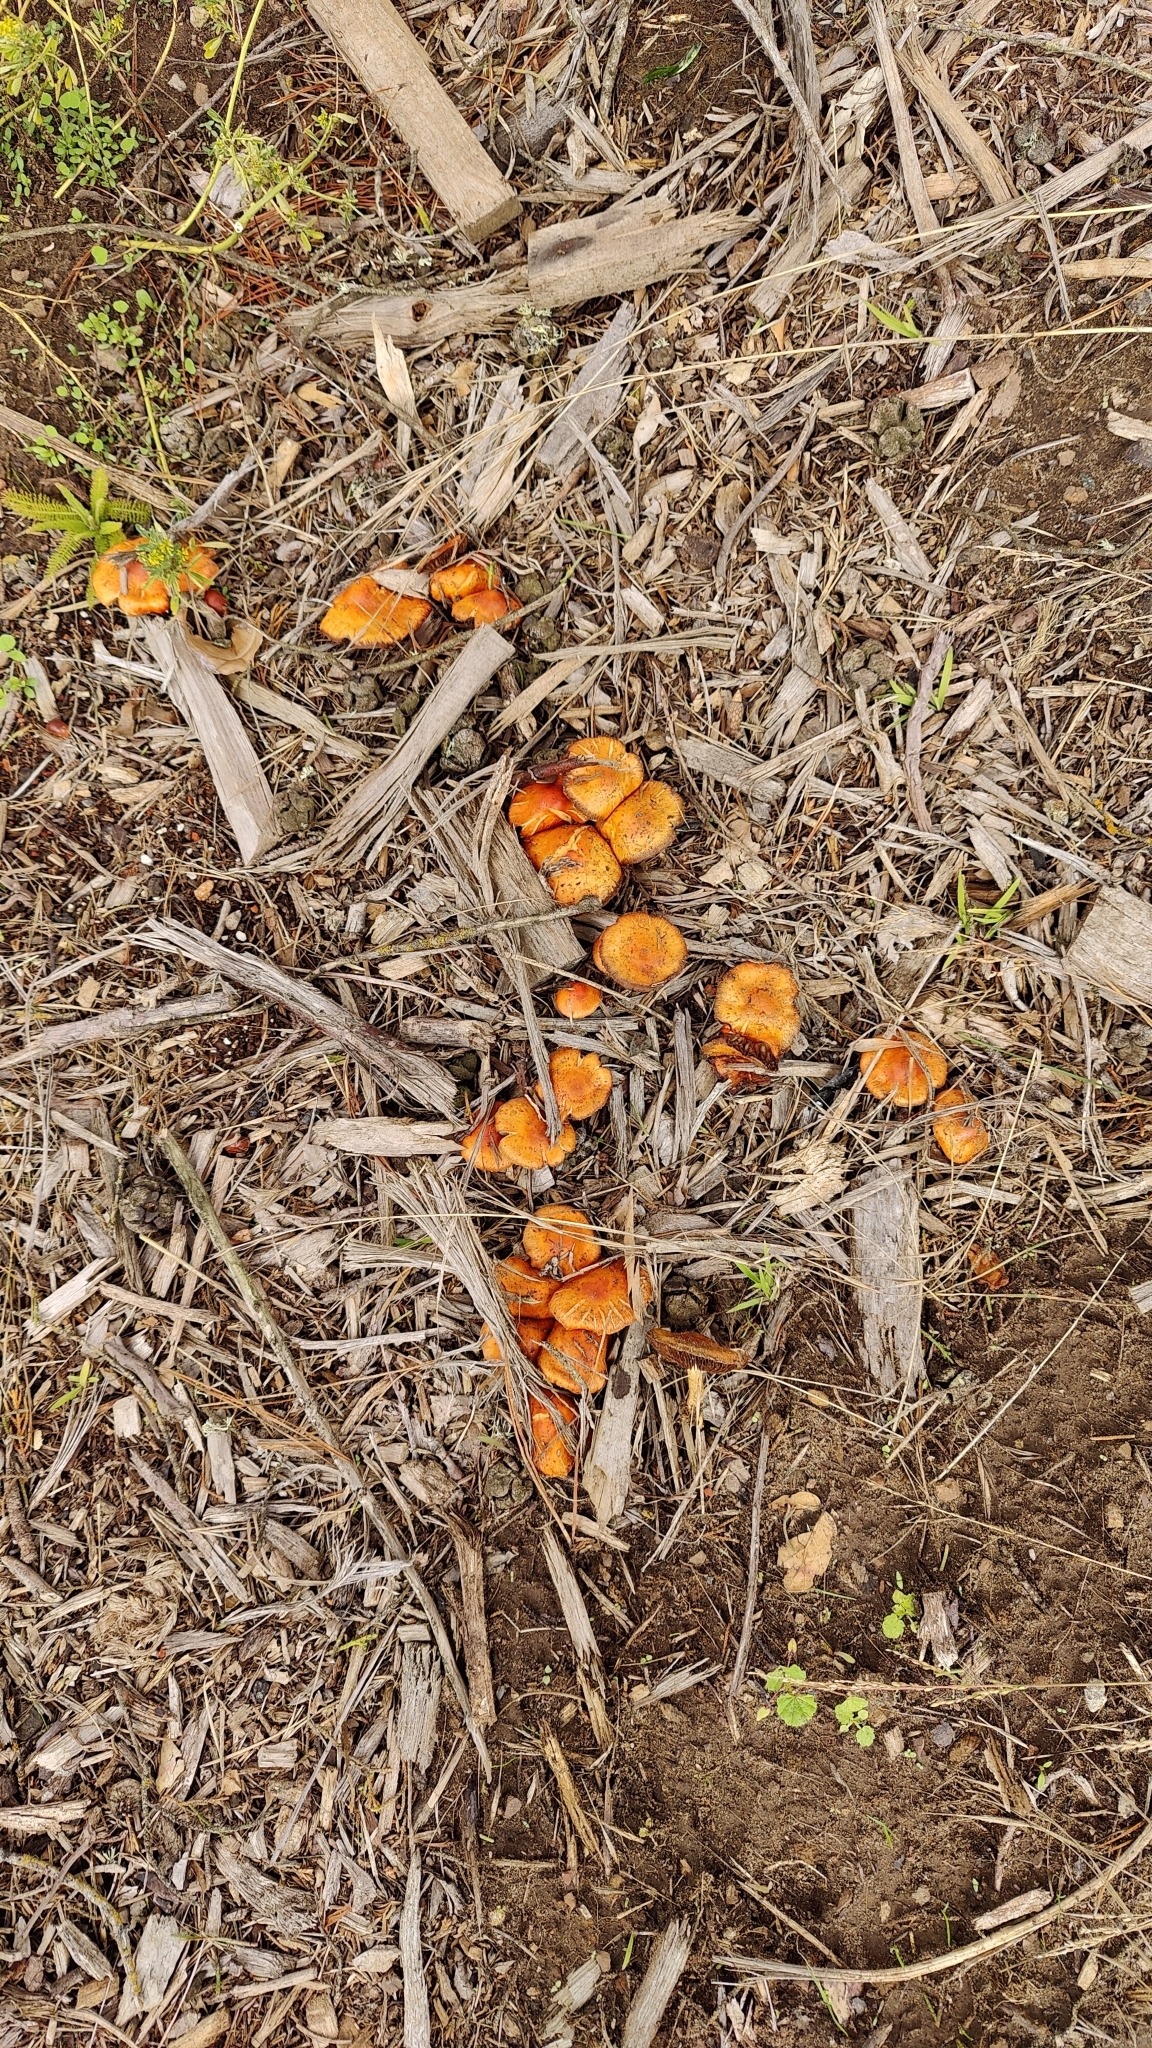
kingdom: Fungi
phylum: Basidiomycota
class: Agaricomycetes
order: Agaricales
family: Strophariaceae
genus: Leratiomyces
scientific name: Leratiomyces ceres
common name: Redlead roundhead
